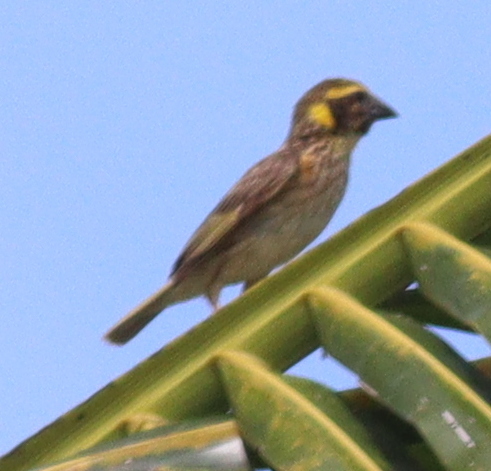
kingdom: Animalia
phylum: Chordata
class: Aves
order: Passeriformes
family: Ploceidae
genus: Ploceus
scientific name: Ploceus philippinus
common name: Baya weaver
